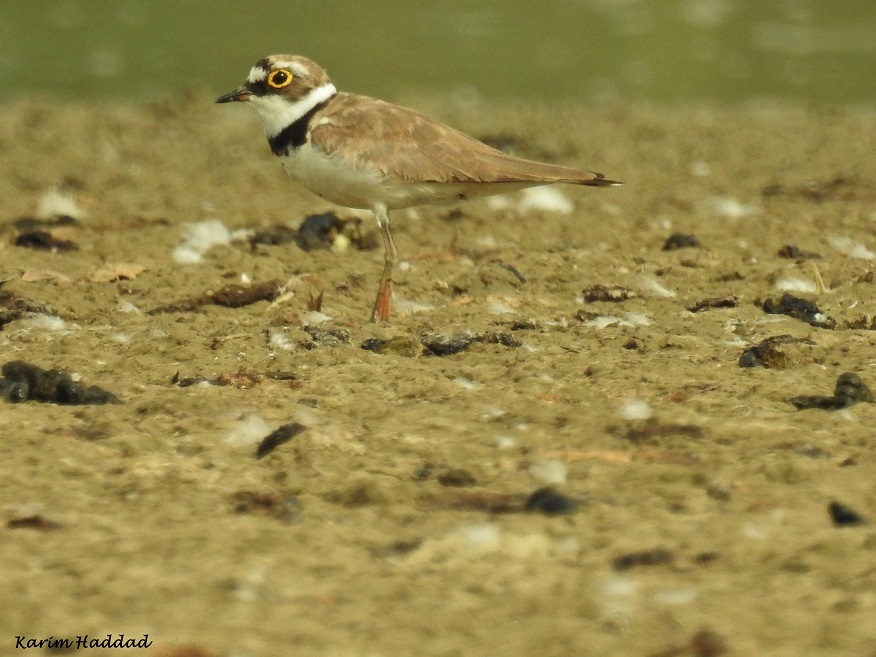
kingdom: Animalia
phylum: Chordata
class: Aves
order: Charadriiformes
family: Charadriidae
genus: Charadrius
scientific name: Charadrius dubius
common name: Little ringed plover
